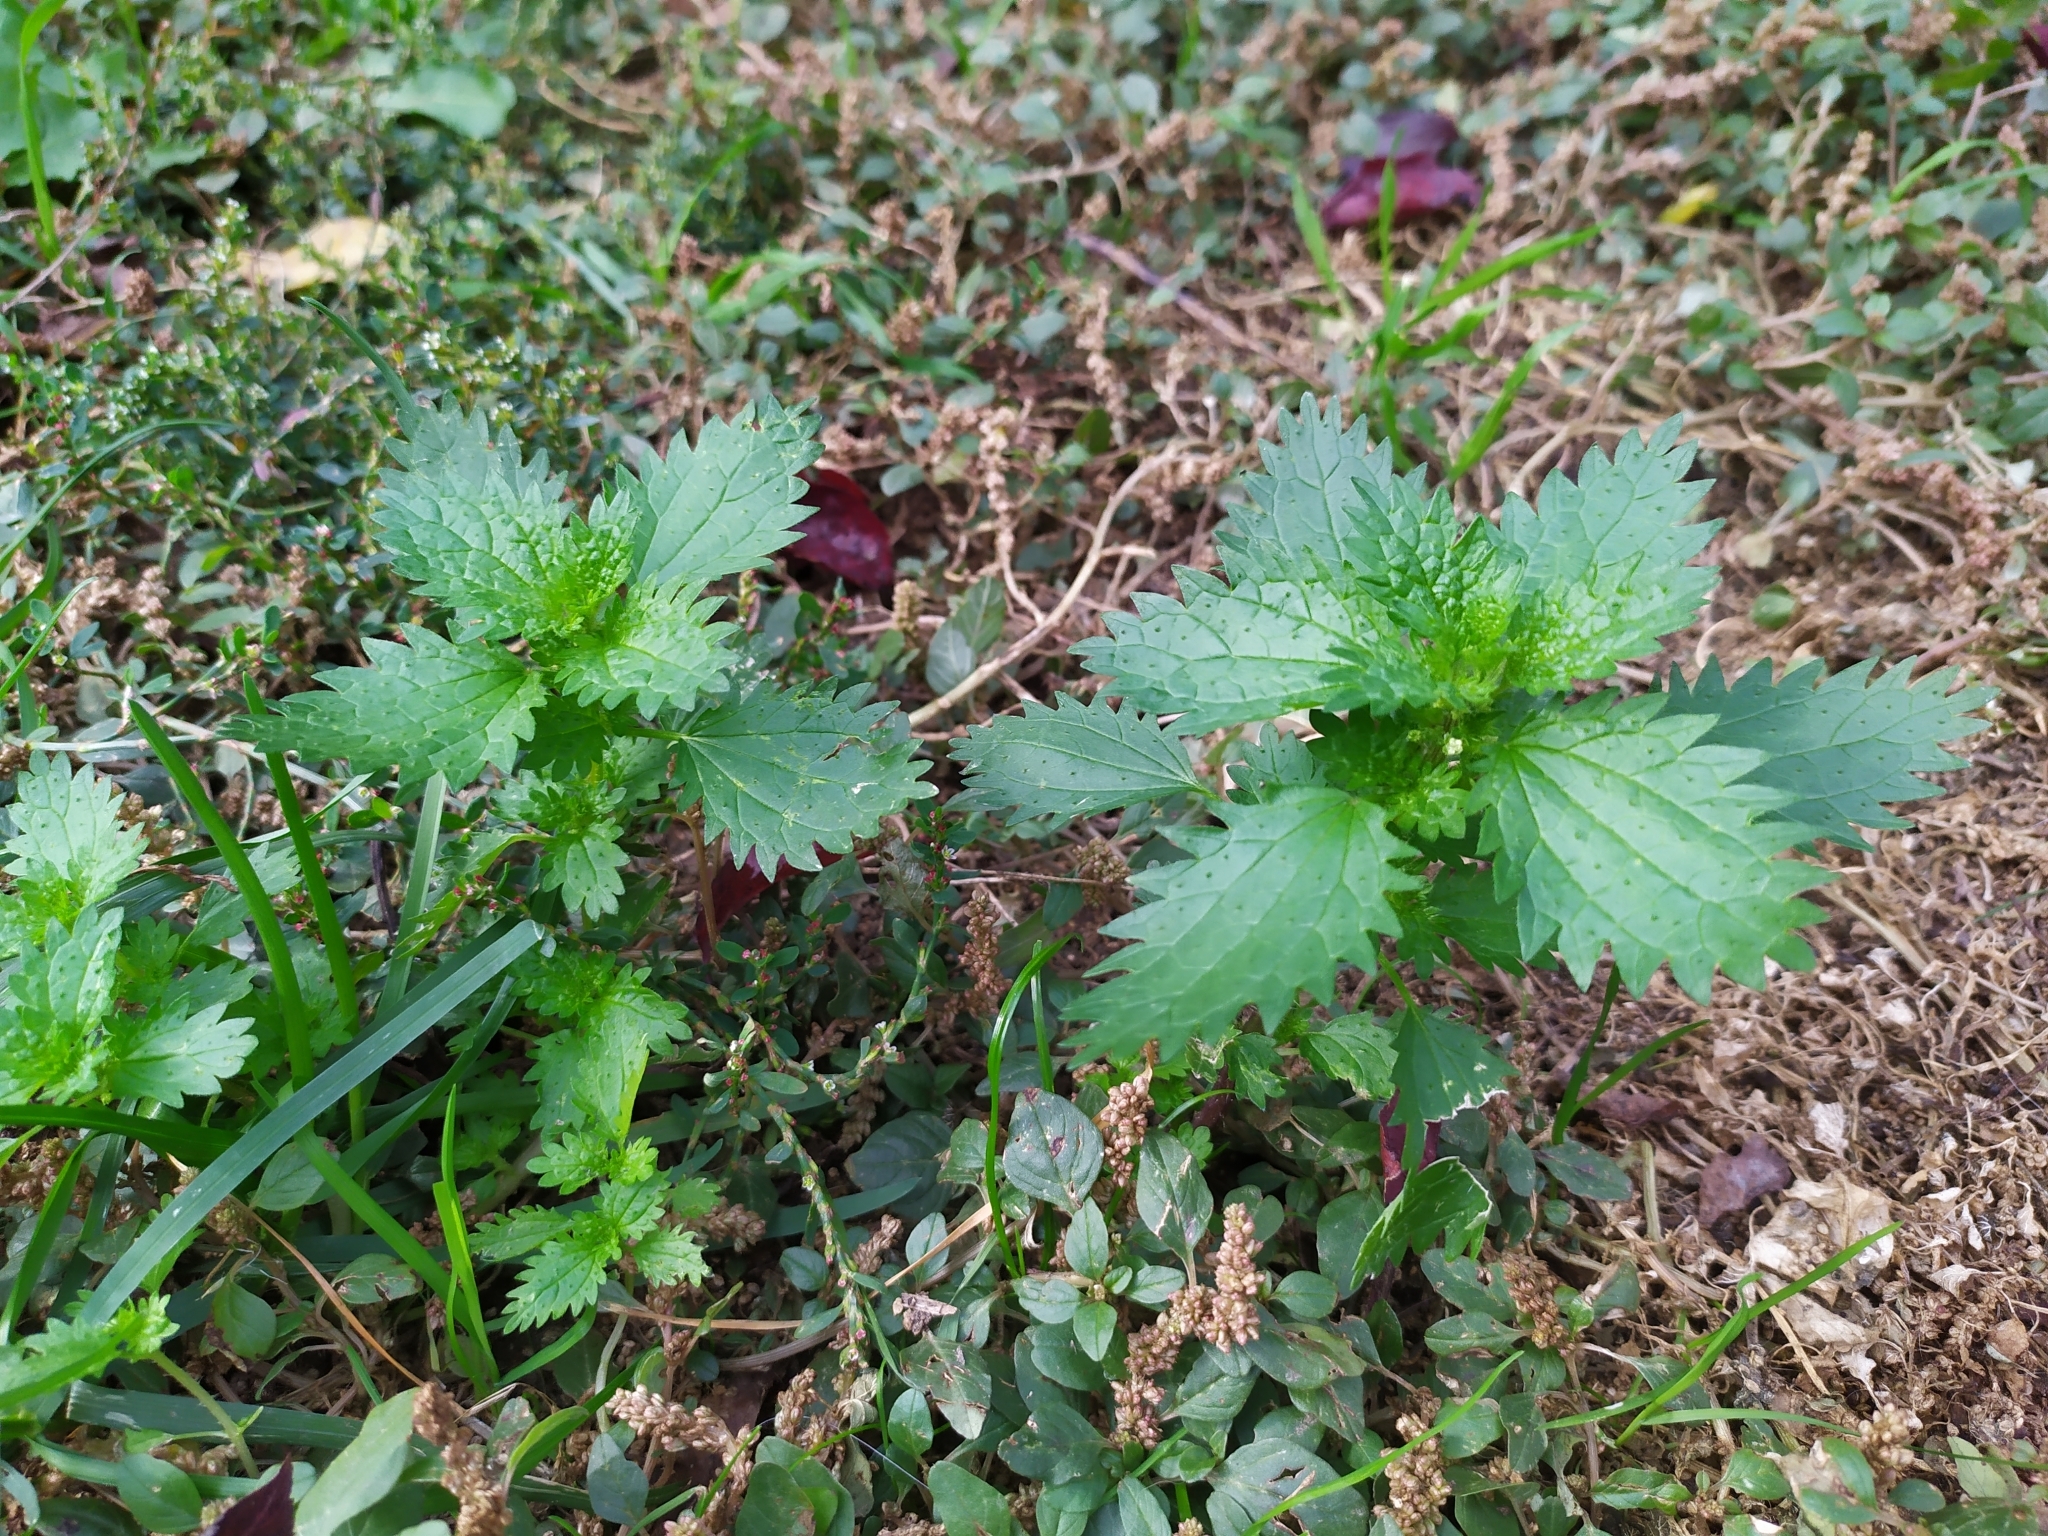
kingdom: Plantae
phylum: Tracheophyta
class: Magnoliopsida
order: Rosales
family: Urticaceae
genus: Urtica
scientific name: Urtica urens
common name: Dwarf nettle
